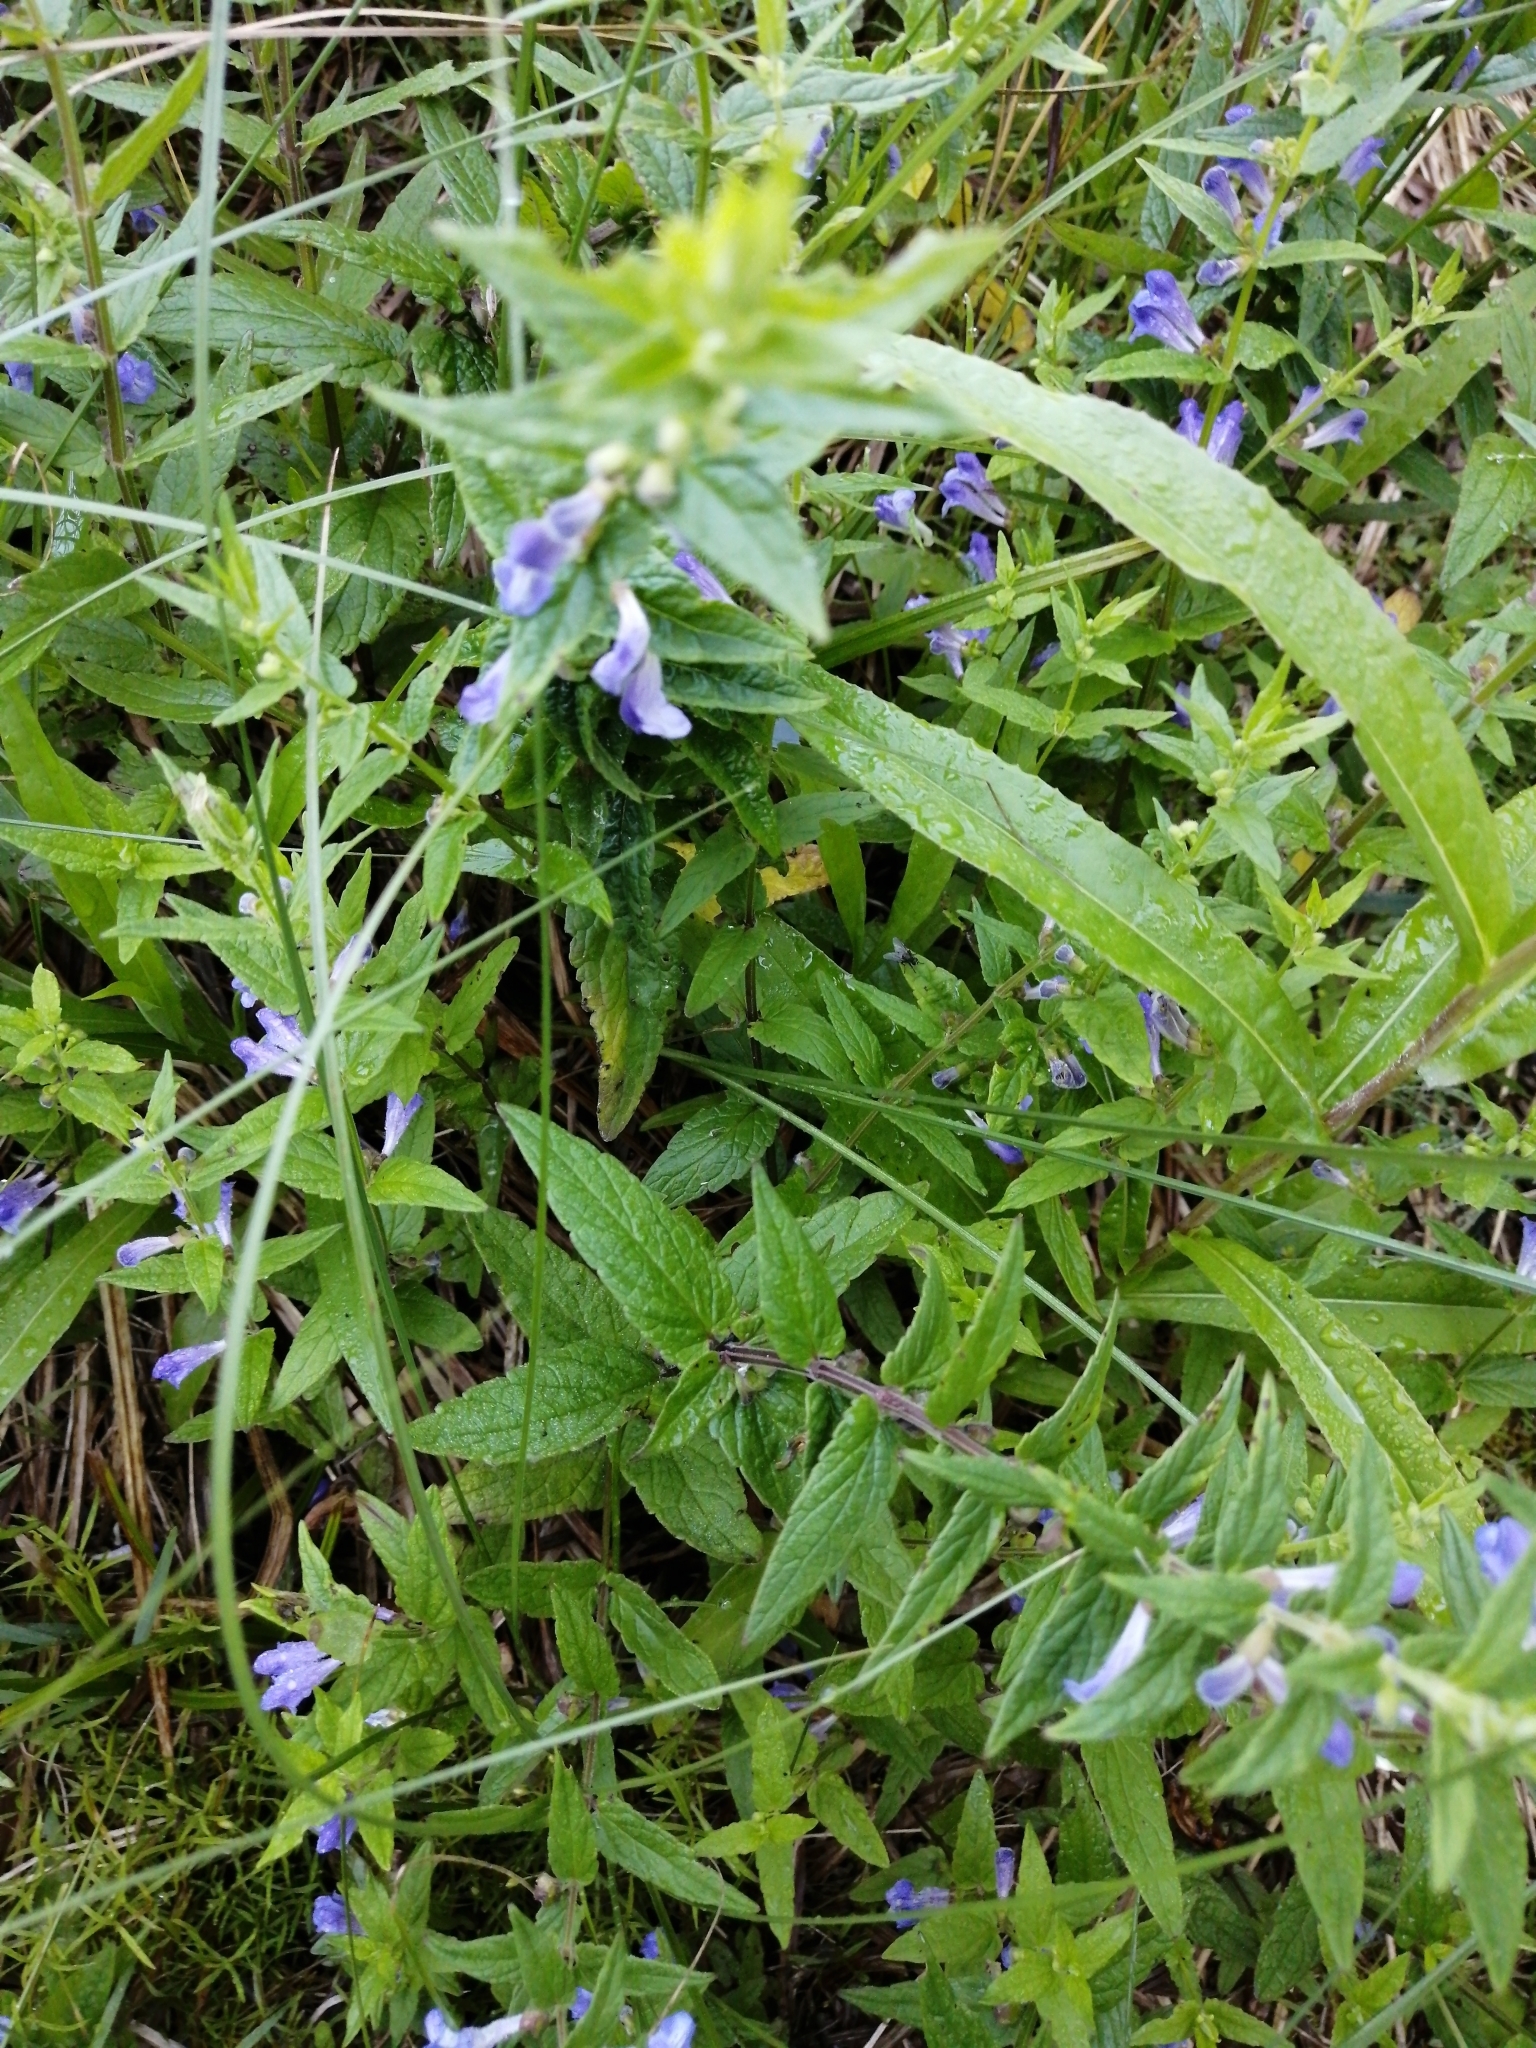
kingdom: Plantae
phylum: Tracheophyta
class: Magnoliopsida
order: Lamiales
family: Lamiaceae
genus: Scutellaria
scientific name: Scutellaria galericulata
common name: Skullcap
